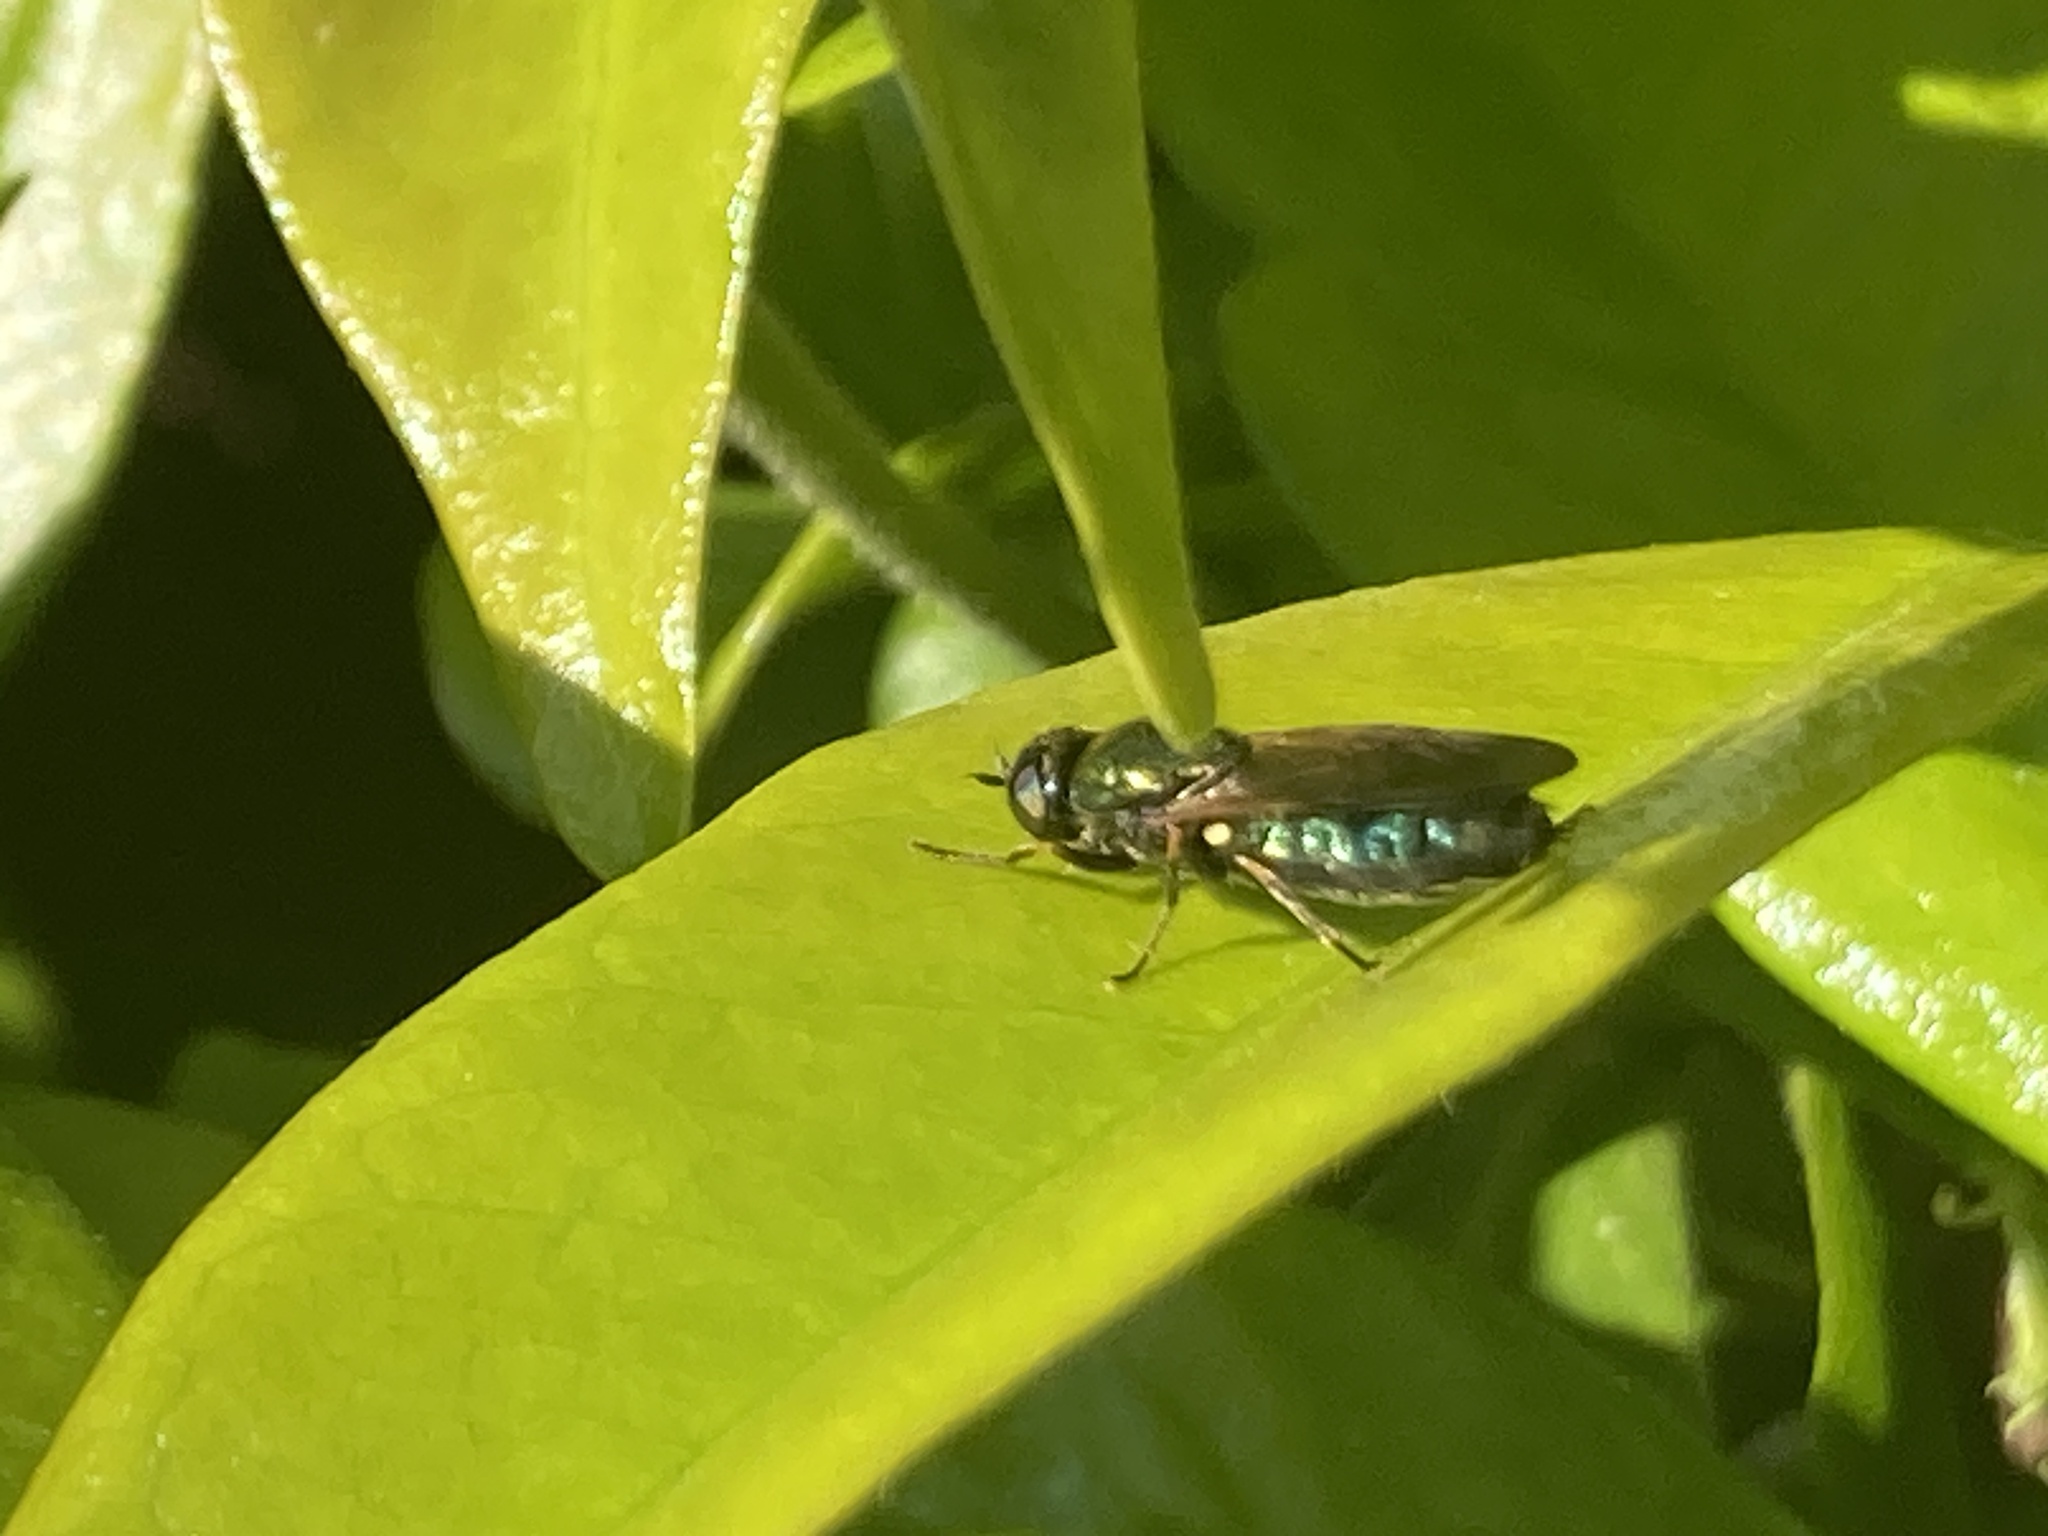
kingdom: Animalia
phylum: Arthropoda
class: Insecta
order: Diptera
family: Stratiomyidae
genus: Chloromyia
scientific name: Chloromyia formosa
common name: Soldier fly
